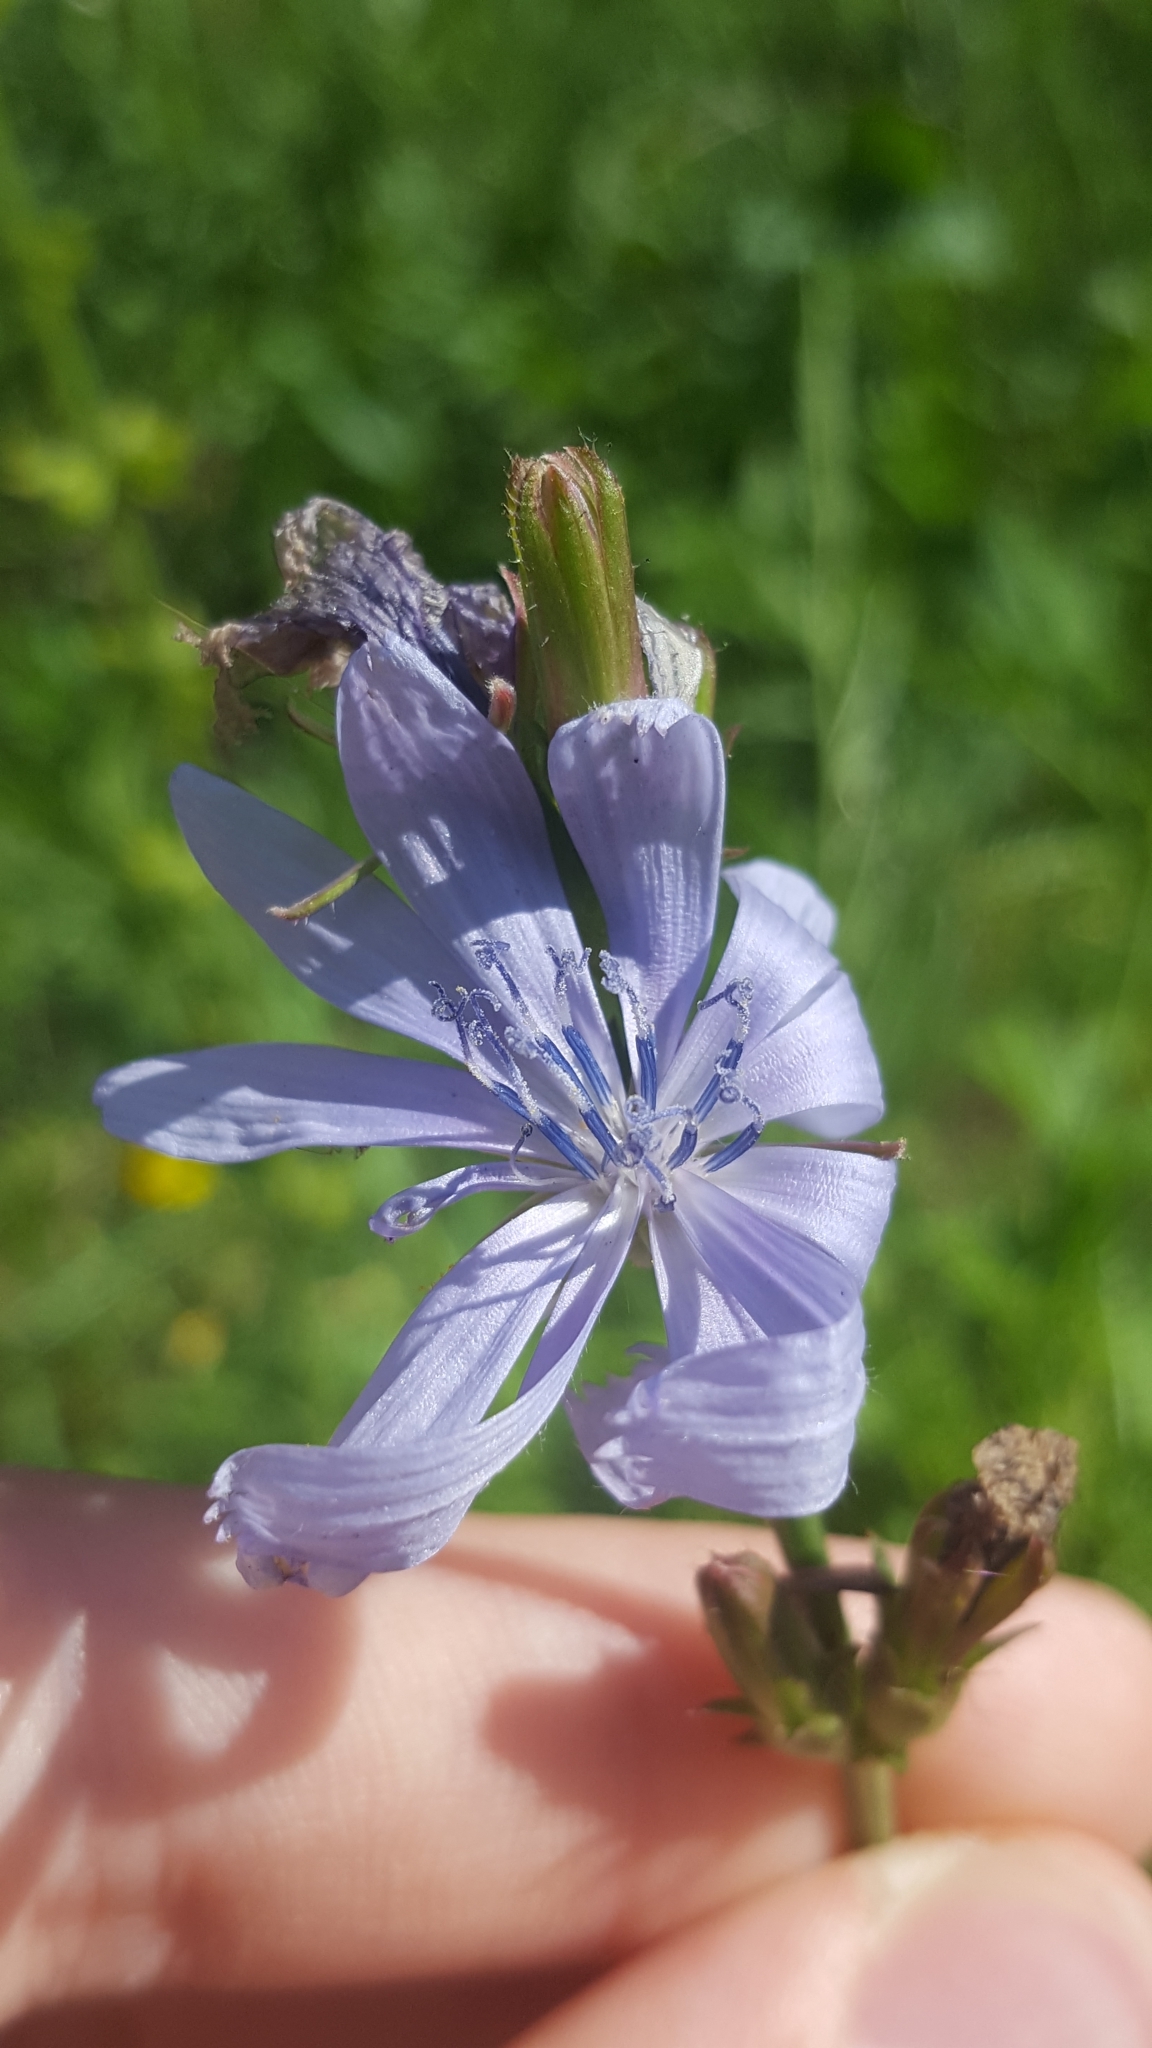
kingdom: Plantae
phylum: Tracheophyta
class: Magnoliopsida
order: Asterales
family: Asteraceae
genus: Cichorium
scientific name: Cichorium intybus
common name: Chicory
